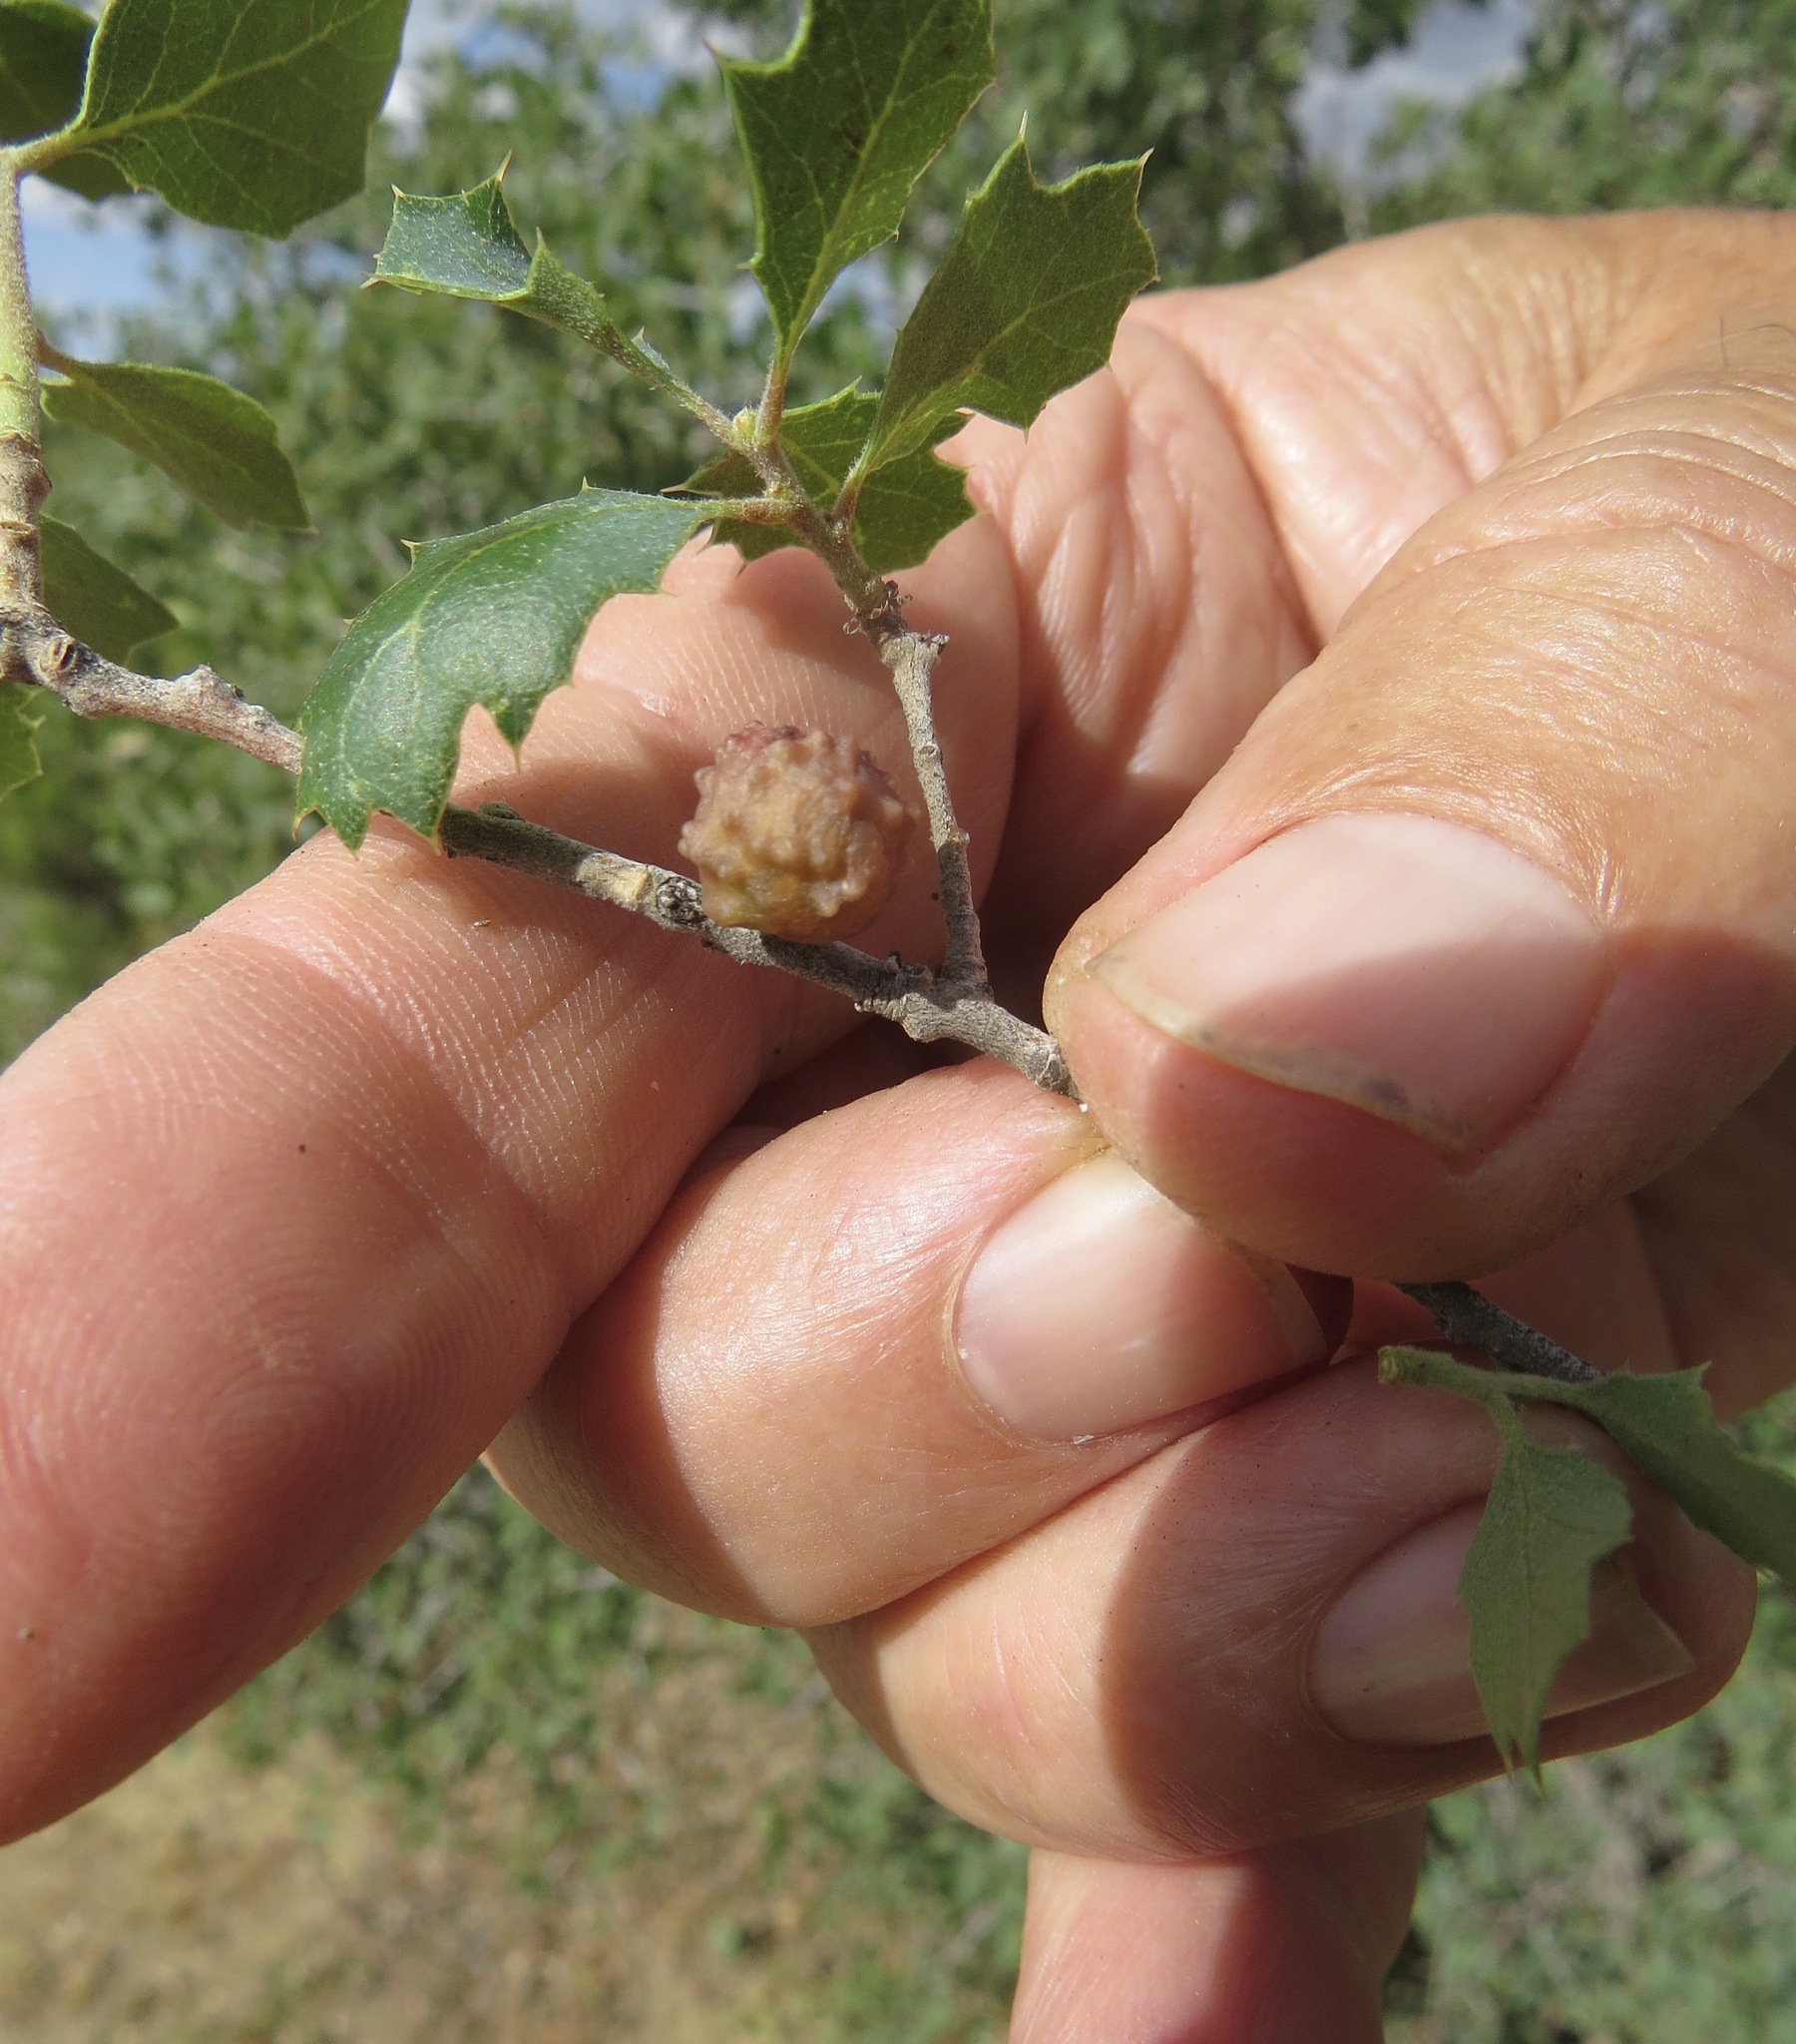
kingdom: Animalia
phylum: Arthropoda
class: Insecta
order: Hymenoptera
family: Cynipidae
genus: Cynips
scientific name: Cynips douglasi
